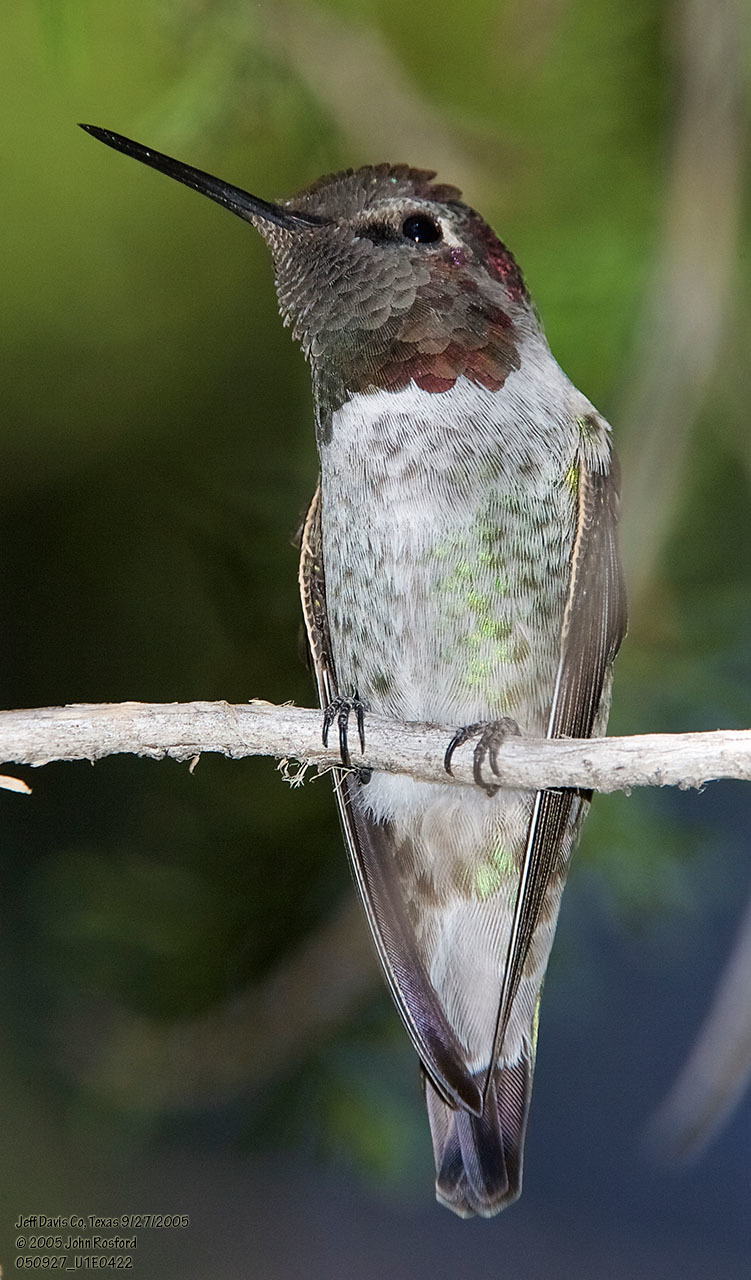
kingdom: Animalia
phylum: Chordata
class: Aves
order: Apodiformes
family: Trochilidae
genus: Calypte
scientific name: Calypte anna
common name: Anna's hummingbird
